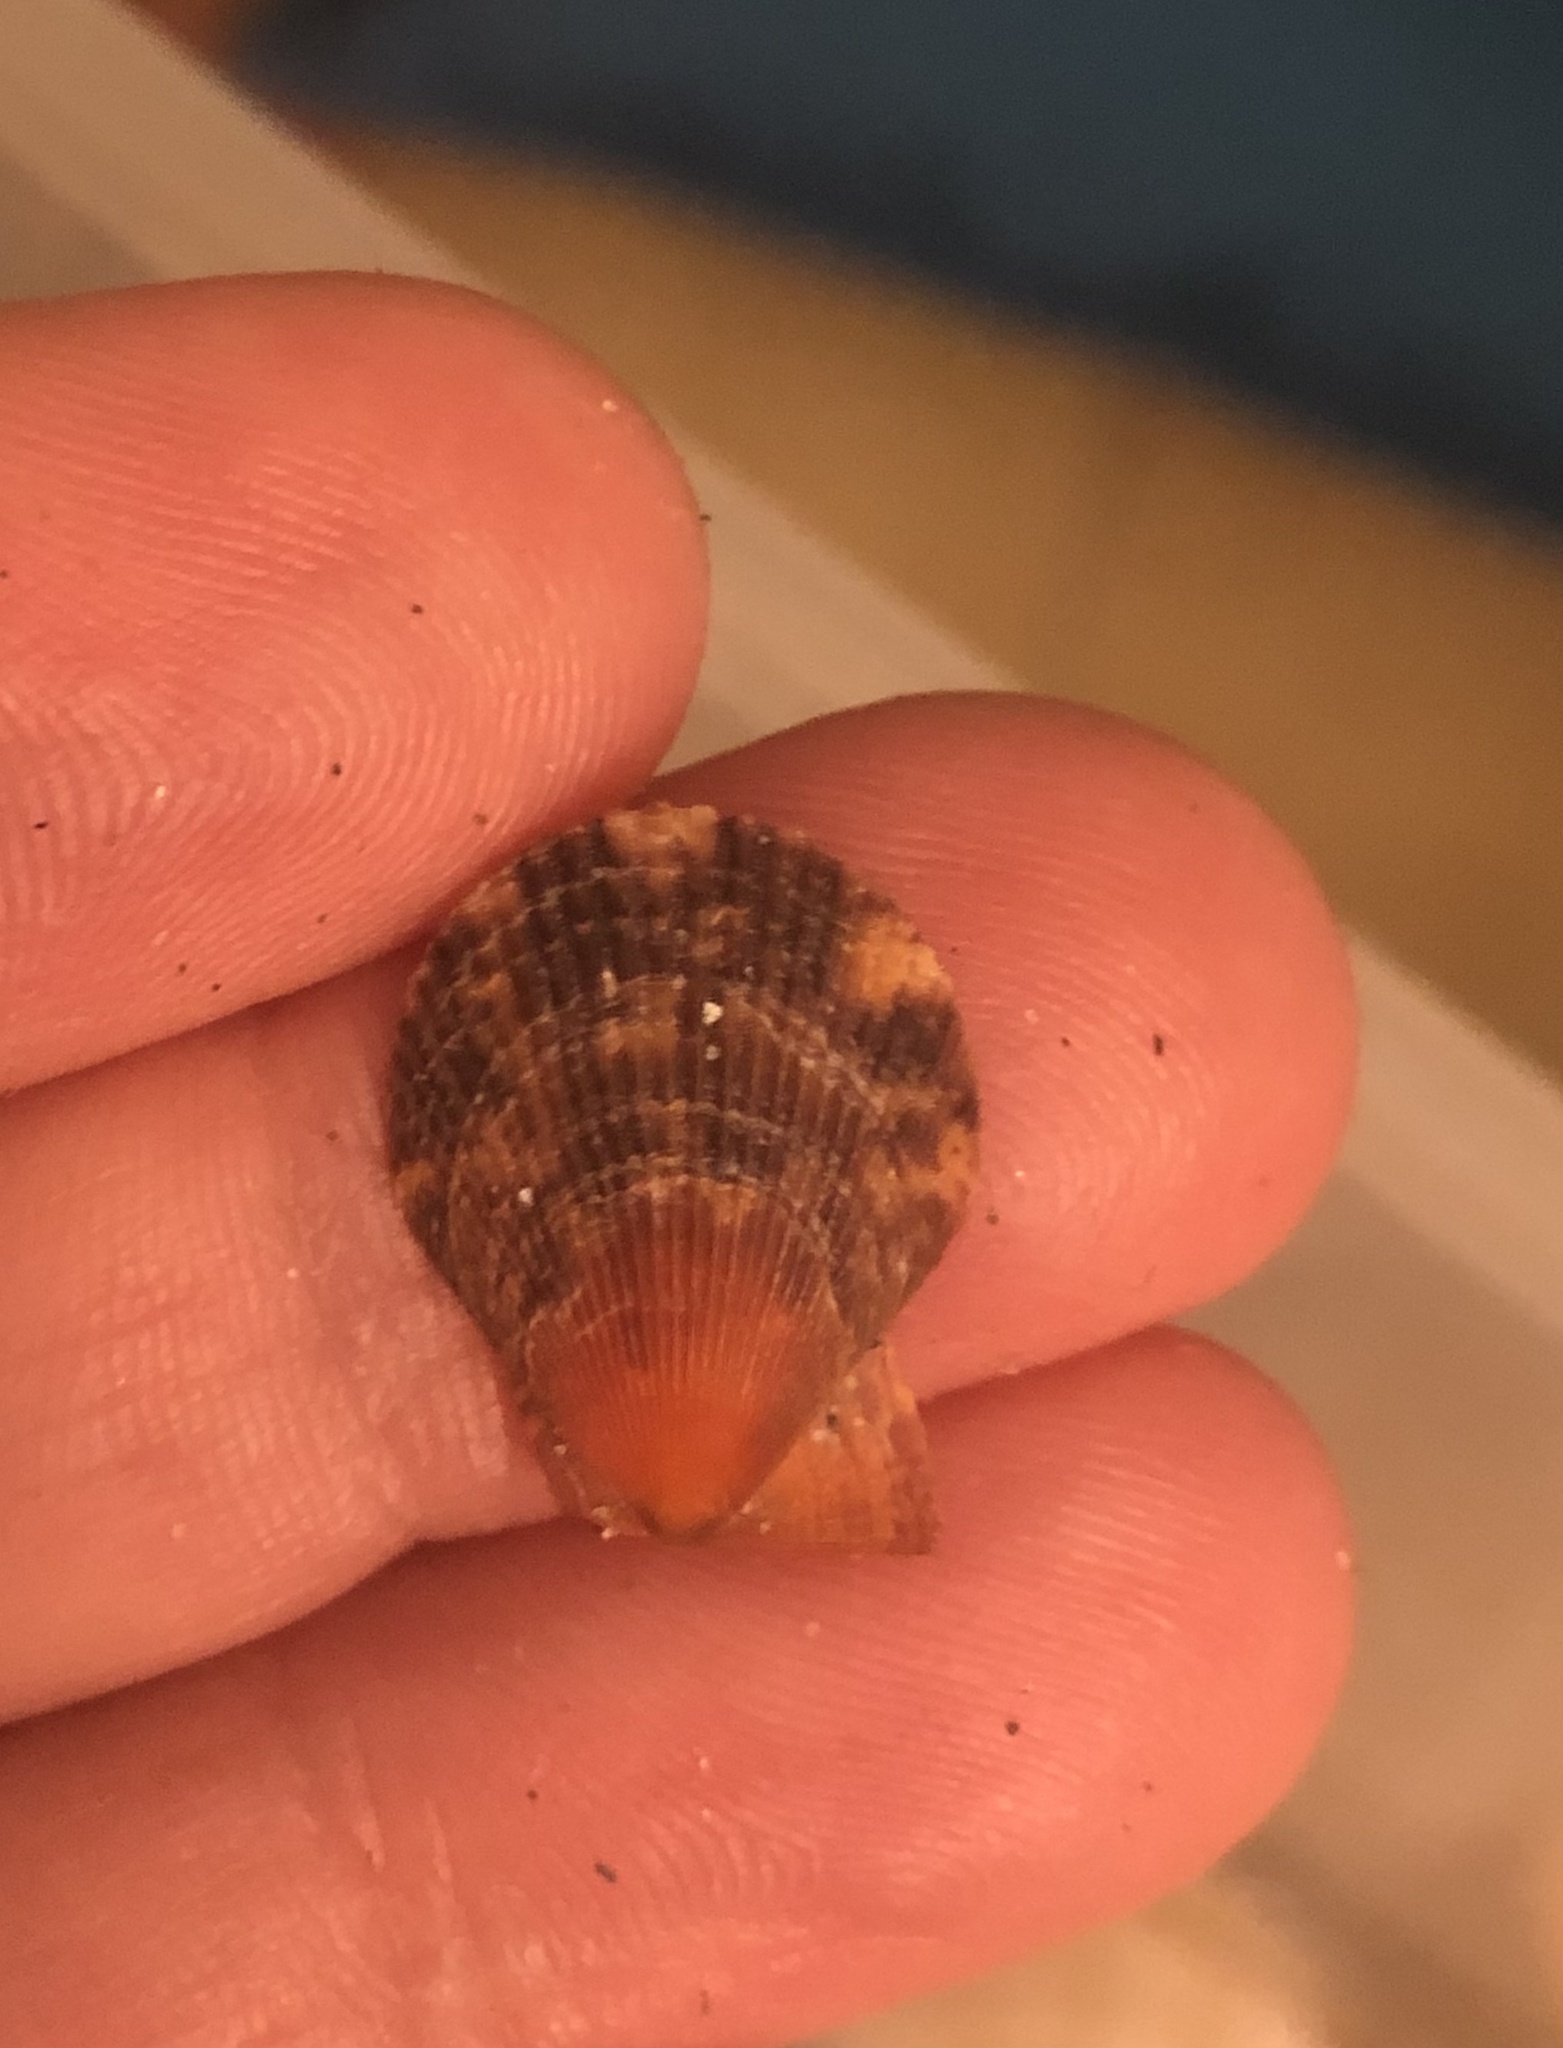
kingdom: Animalia
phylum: Mollusca
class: Bivalvia
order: Pectinida
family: Pectinidae
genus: Mimachlamys
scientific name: Mimachlamys varia
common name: Variegated scallop
